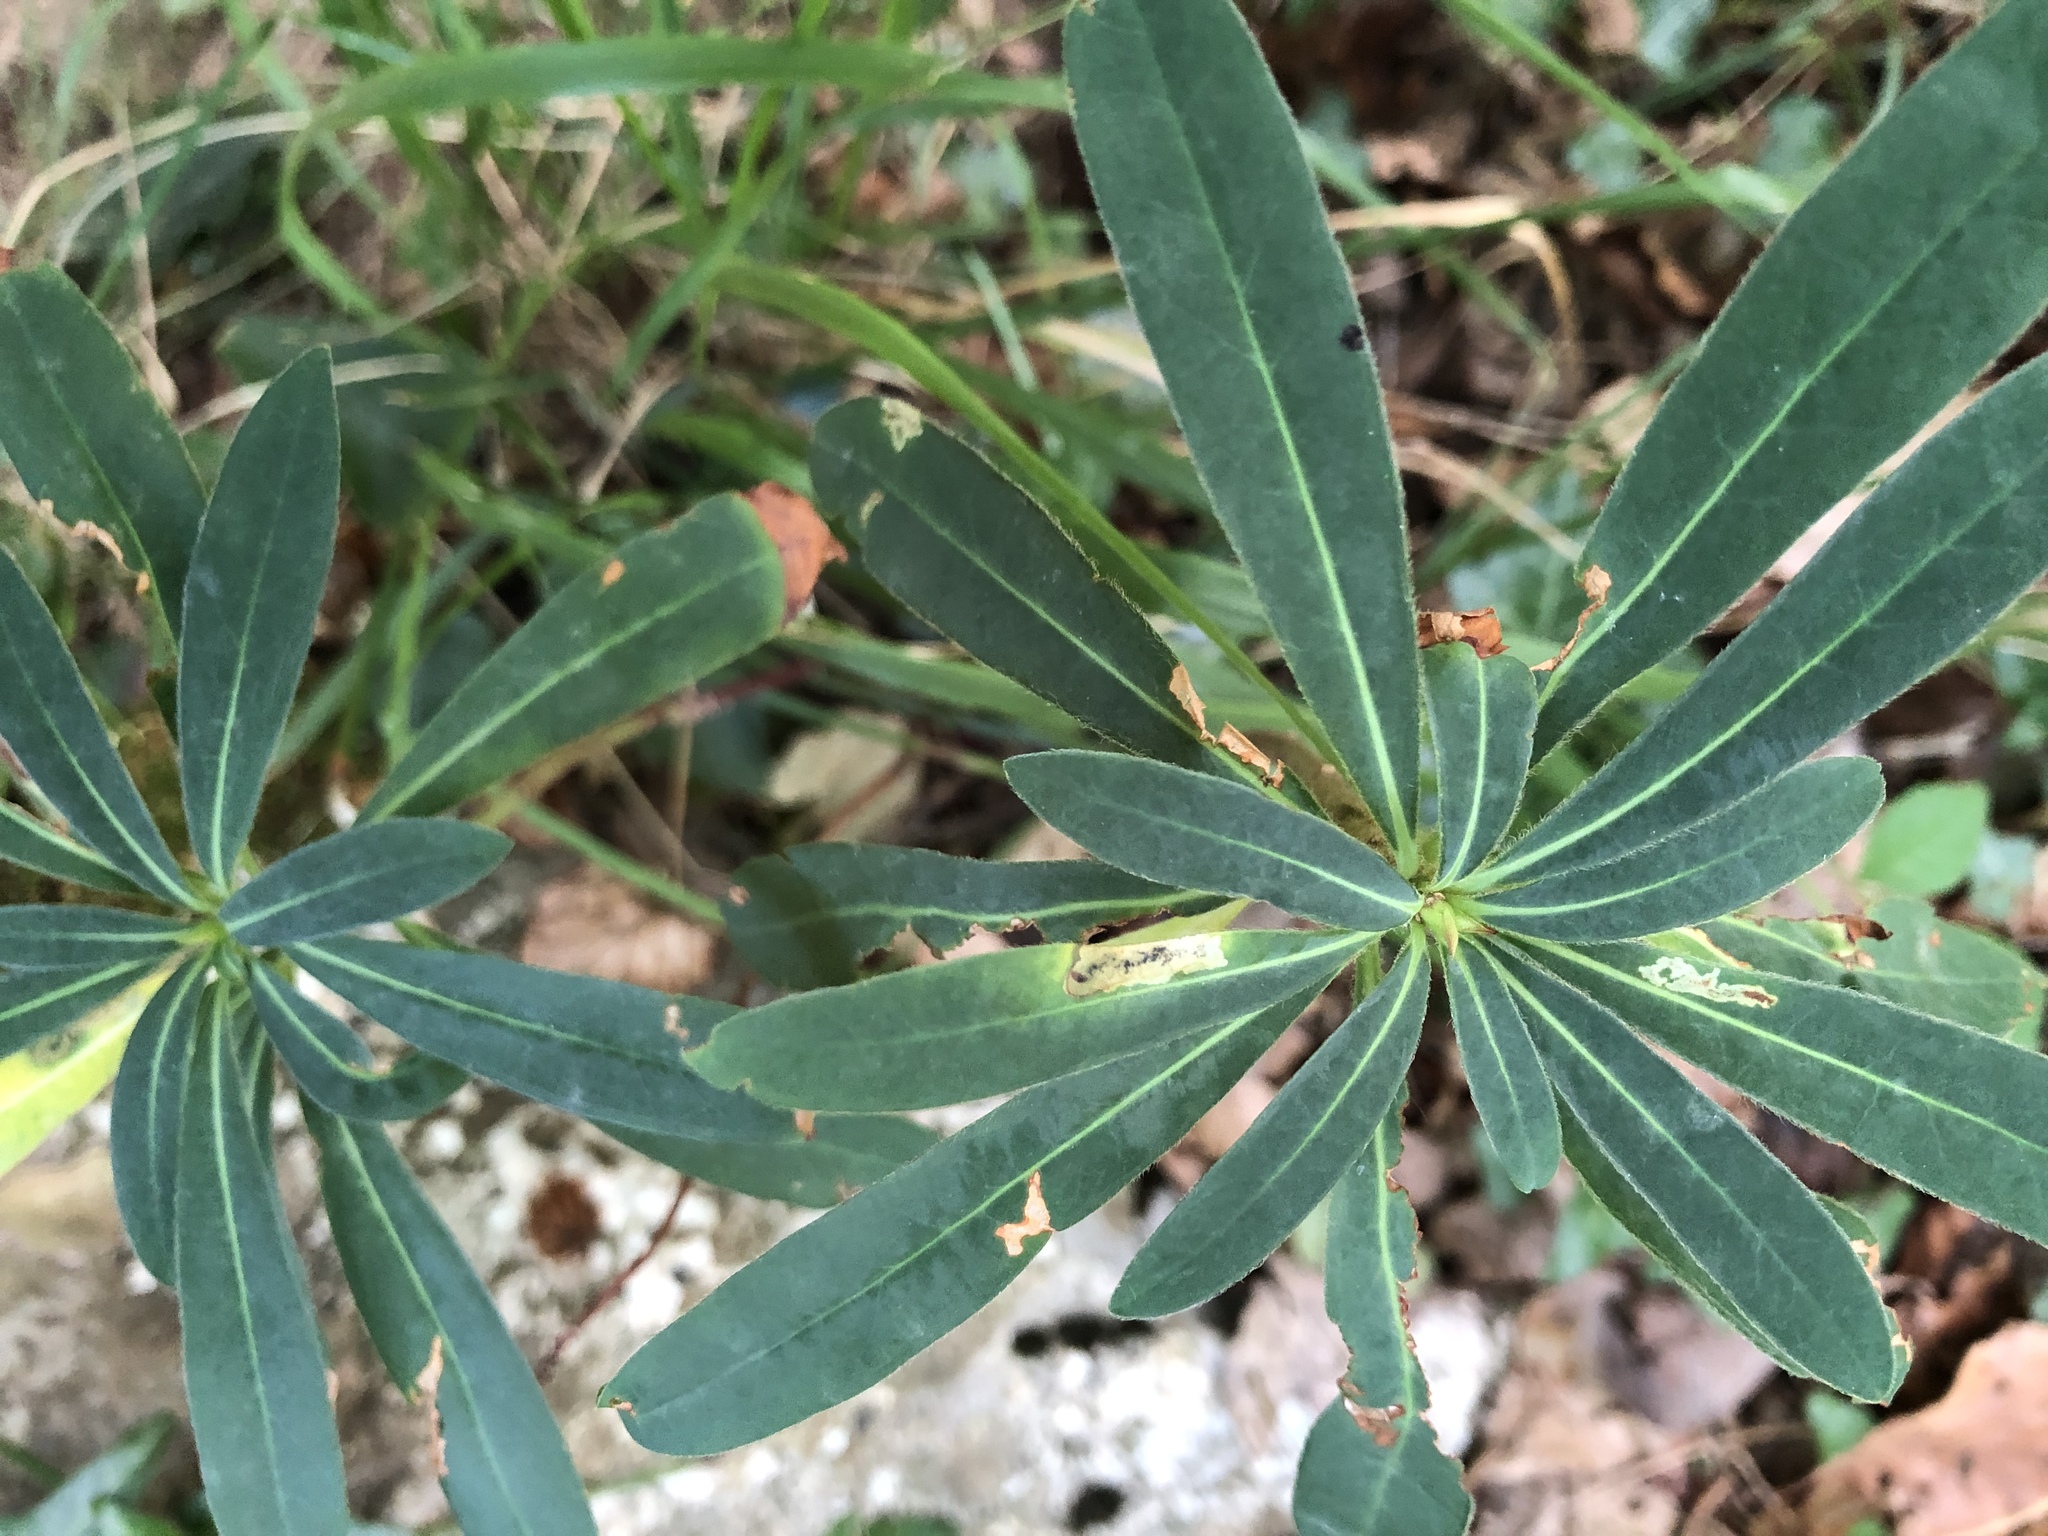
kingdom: Plantae
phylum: Tracheophyta
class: Magnoliopsida
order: Malpighiales
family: Euphorbiaceae
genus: Euphorbia
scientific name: Euphorbia amygdaloides
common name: Wood spurge
